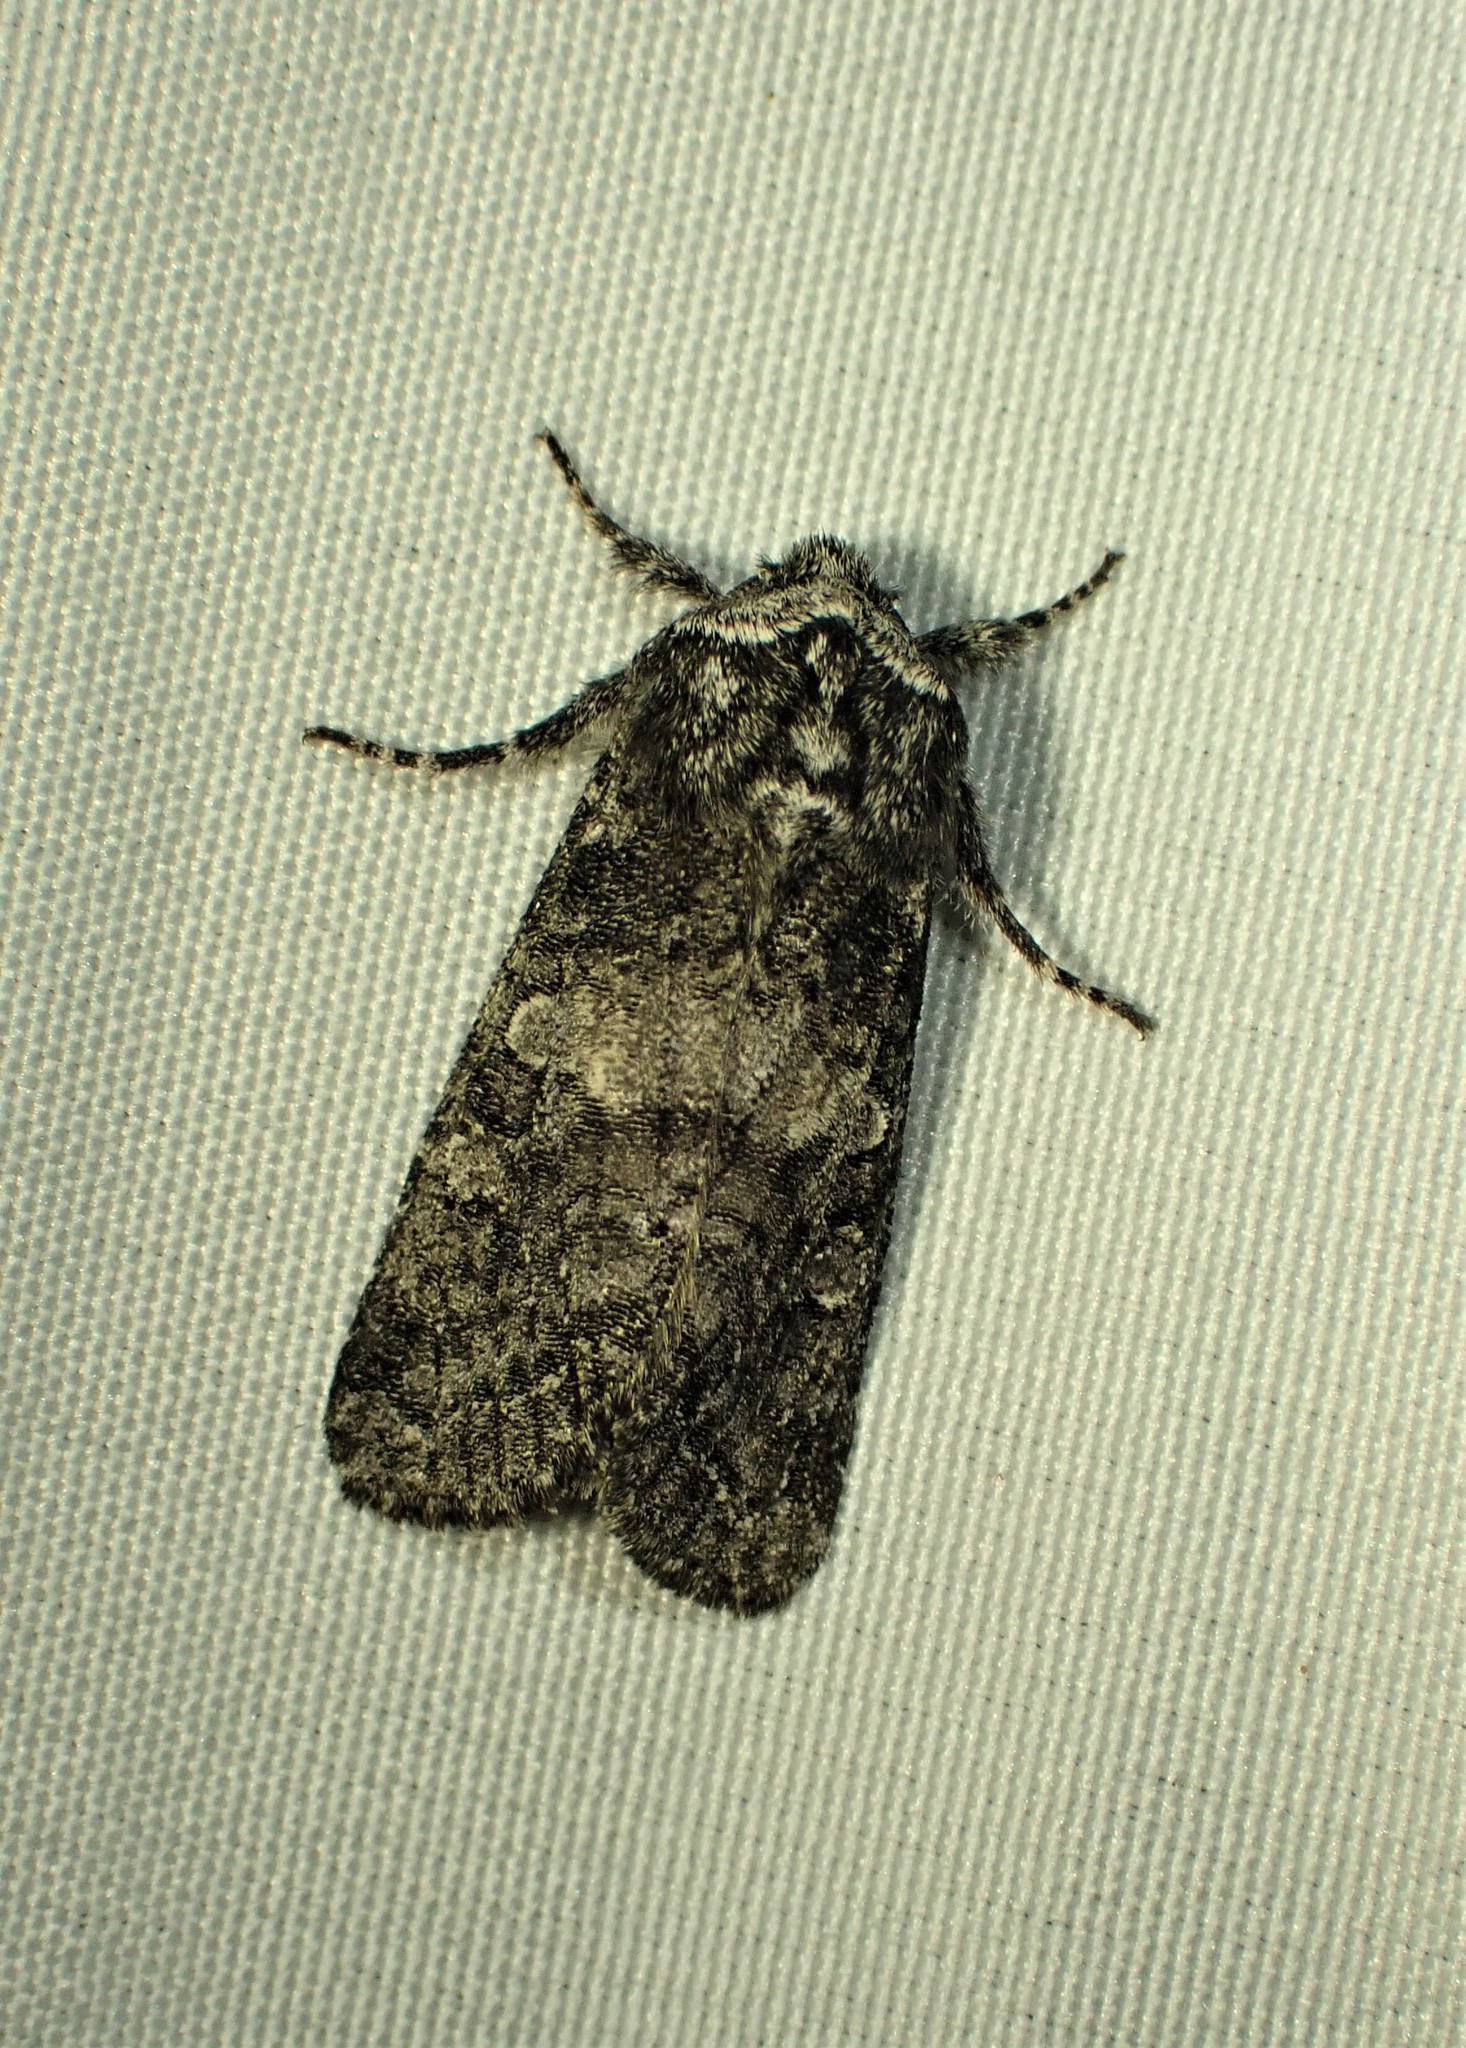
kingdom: Animalia
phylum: Arthropoda
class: Insecta
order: Lepidoptera
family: Noctuidae
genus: Egira
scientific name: Egira dolosa
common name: Lined black aspen cat.
